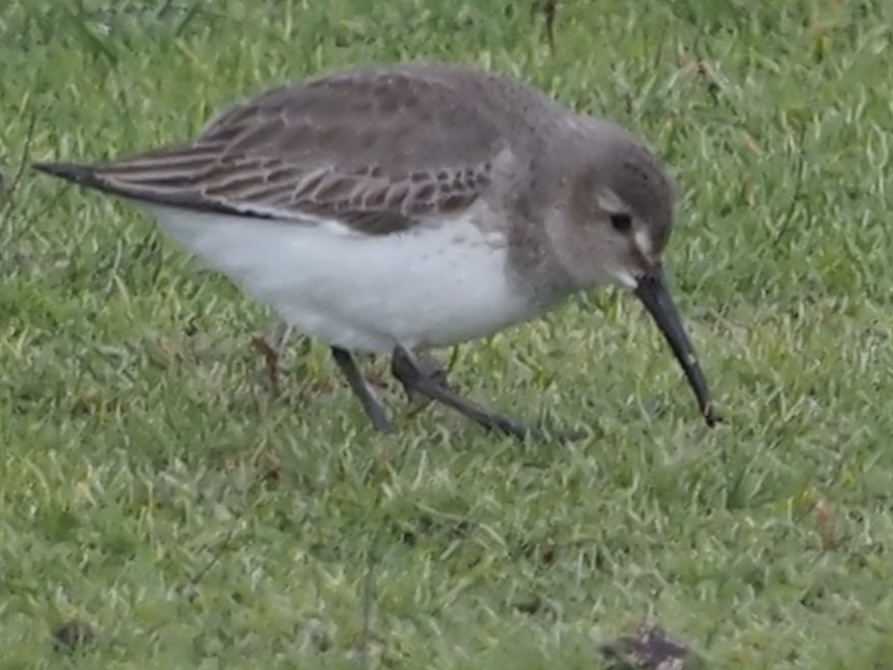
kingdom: Animalia
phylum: Chordata
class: Aves
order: Charadriiformes
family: Scolopacidae
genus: Calidris
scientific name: Calidris alpina
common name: Dunlin
